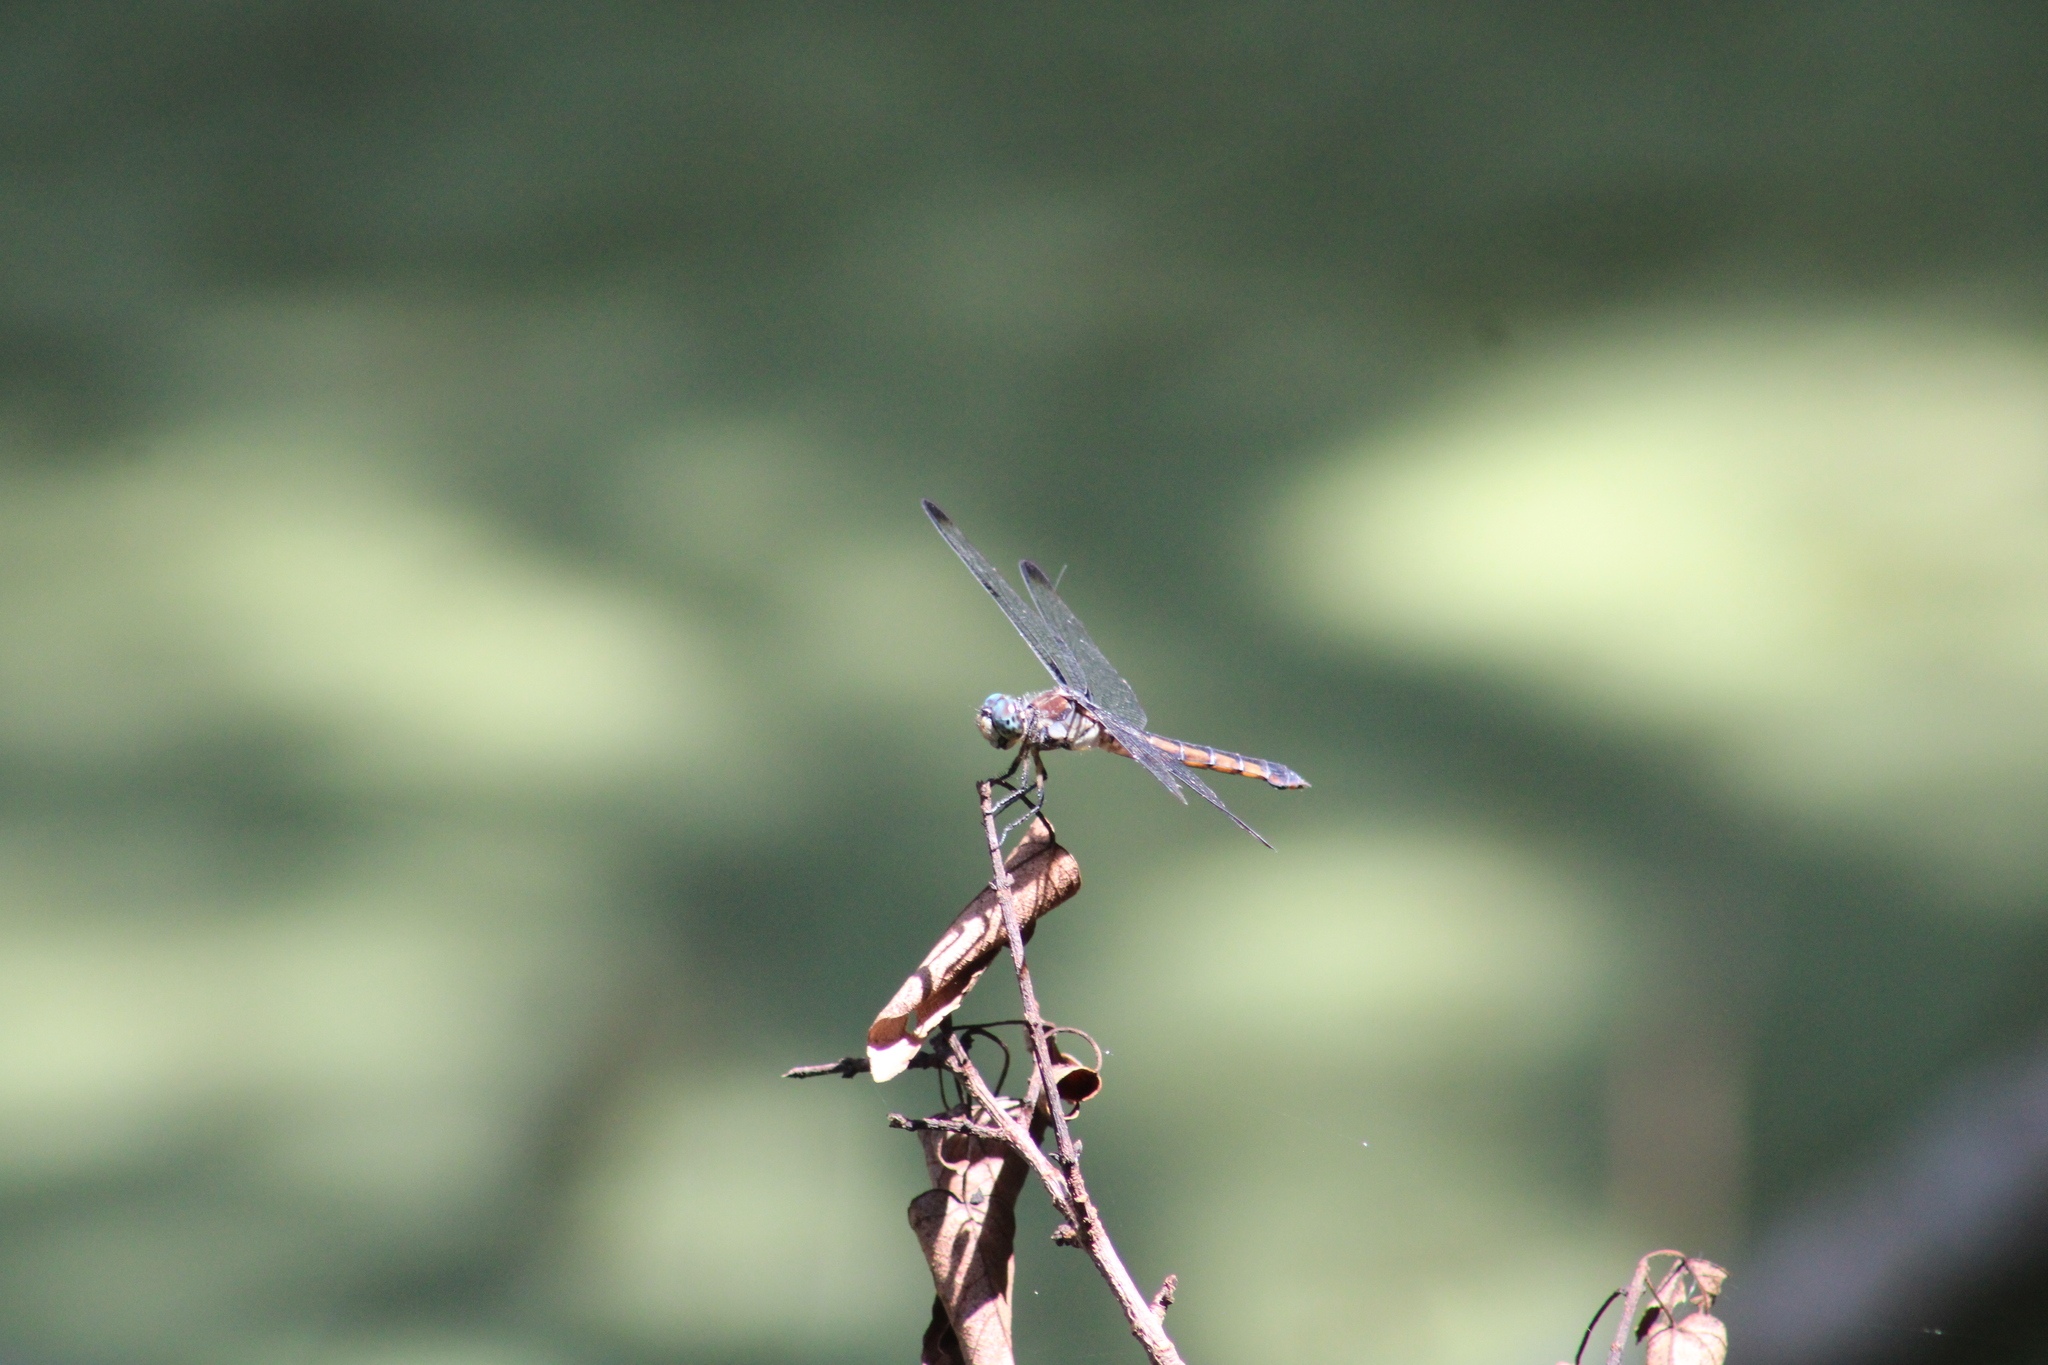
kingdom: Animalia
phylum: Arthropoda
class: Insecta
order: Odonata
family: Libellulidae
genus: Libellula
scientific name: Libellula vibrans
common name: Great blue skimmer
